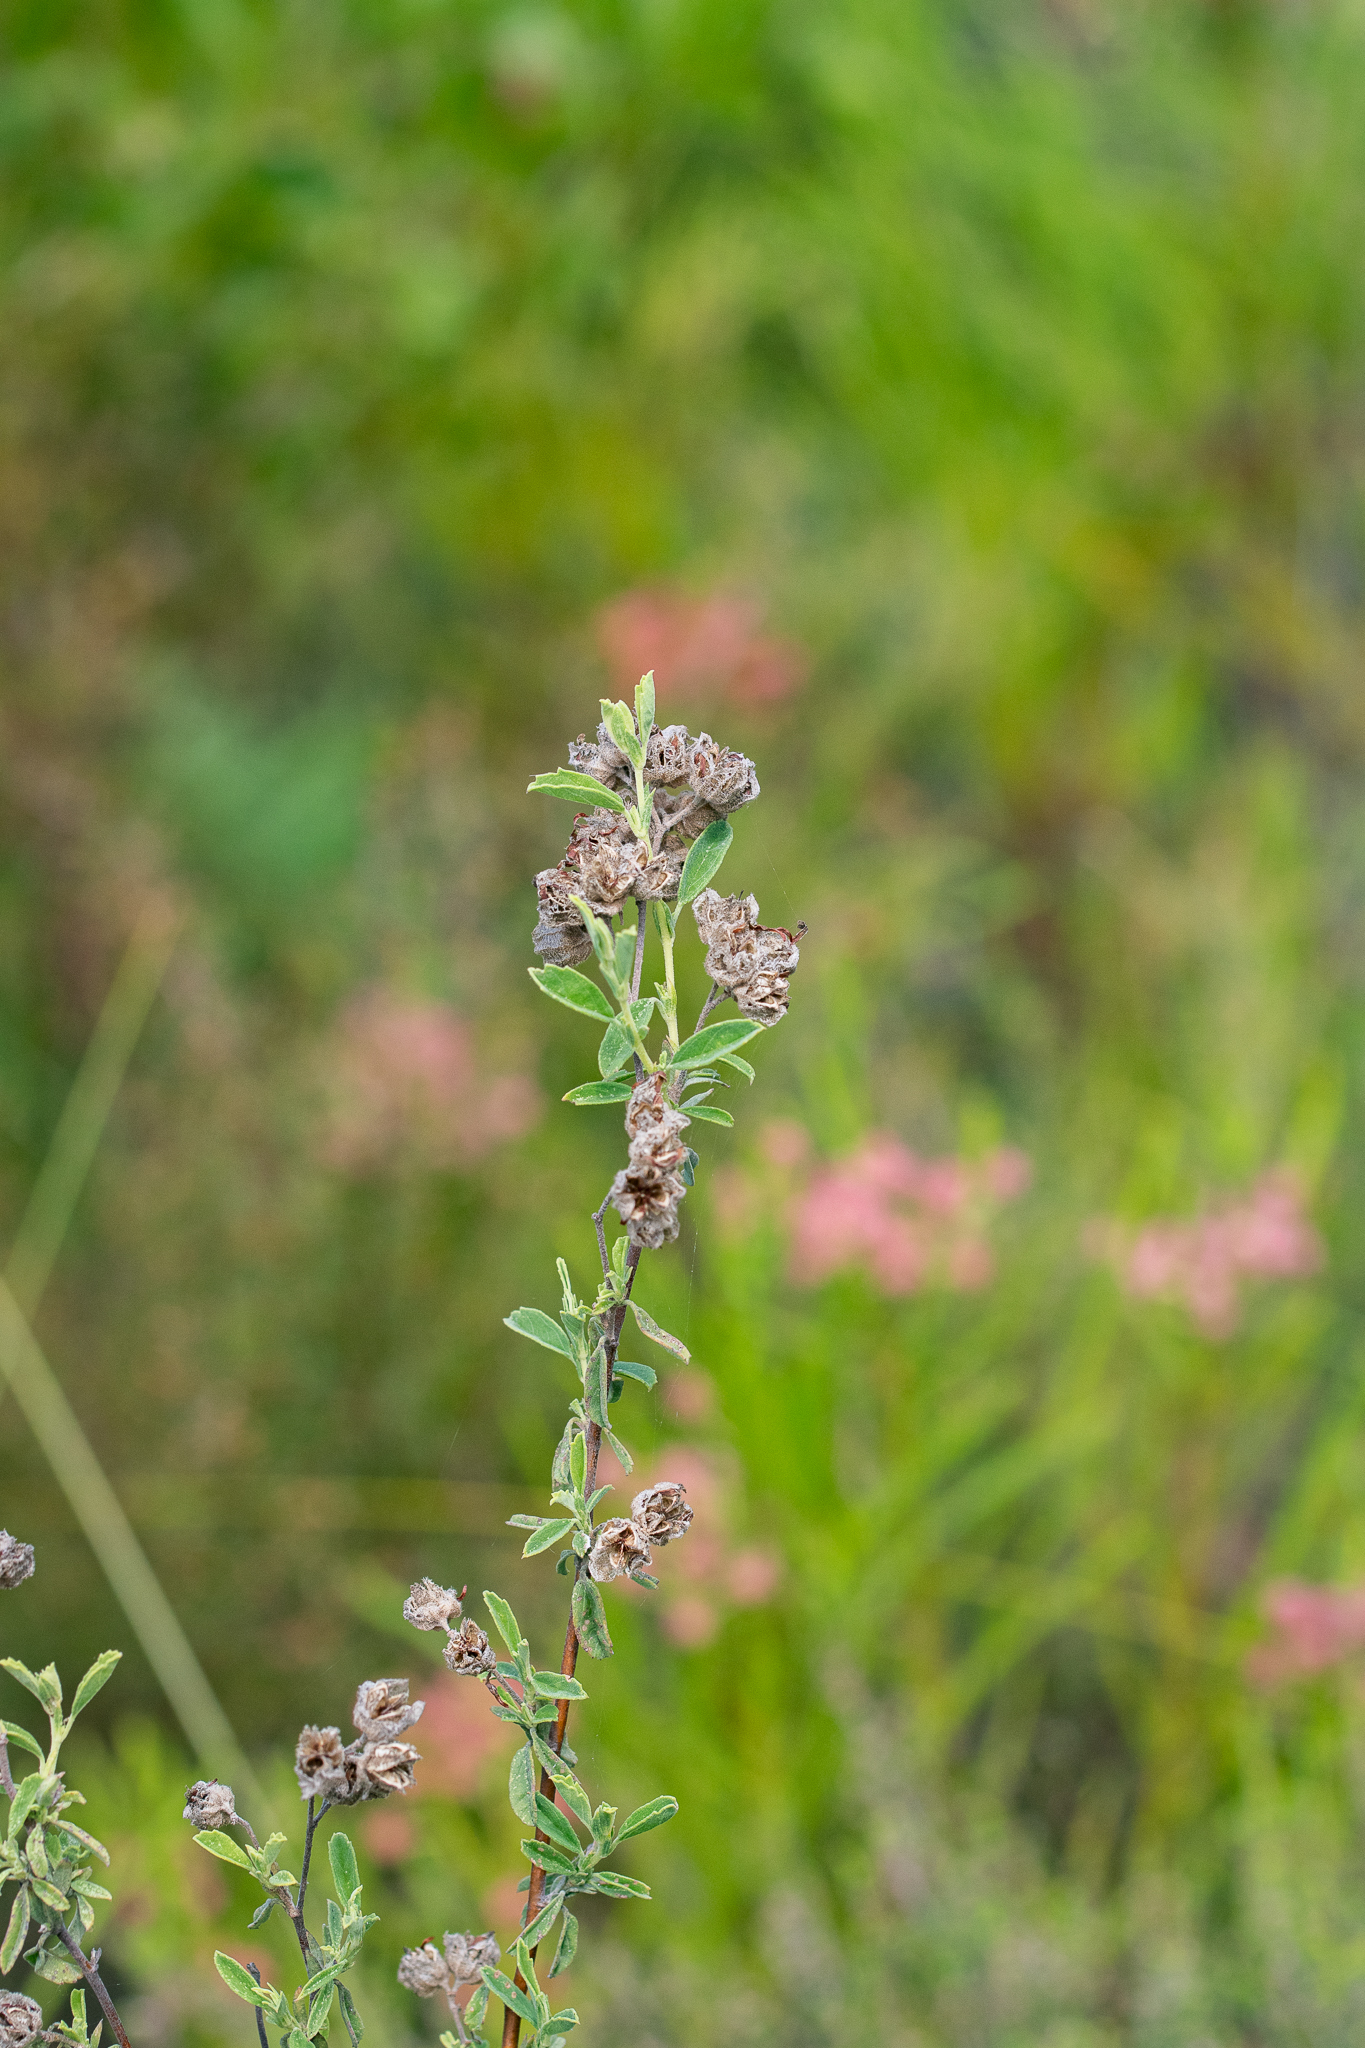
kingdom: Plantae
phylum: Tracheophyta
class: Magnoliopsida
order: Malvales
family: Malvaceae
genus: Hermannia
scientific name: Hermannia hyssopifolia
